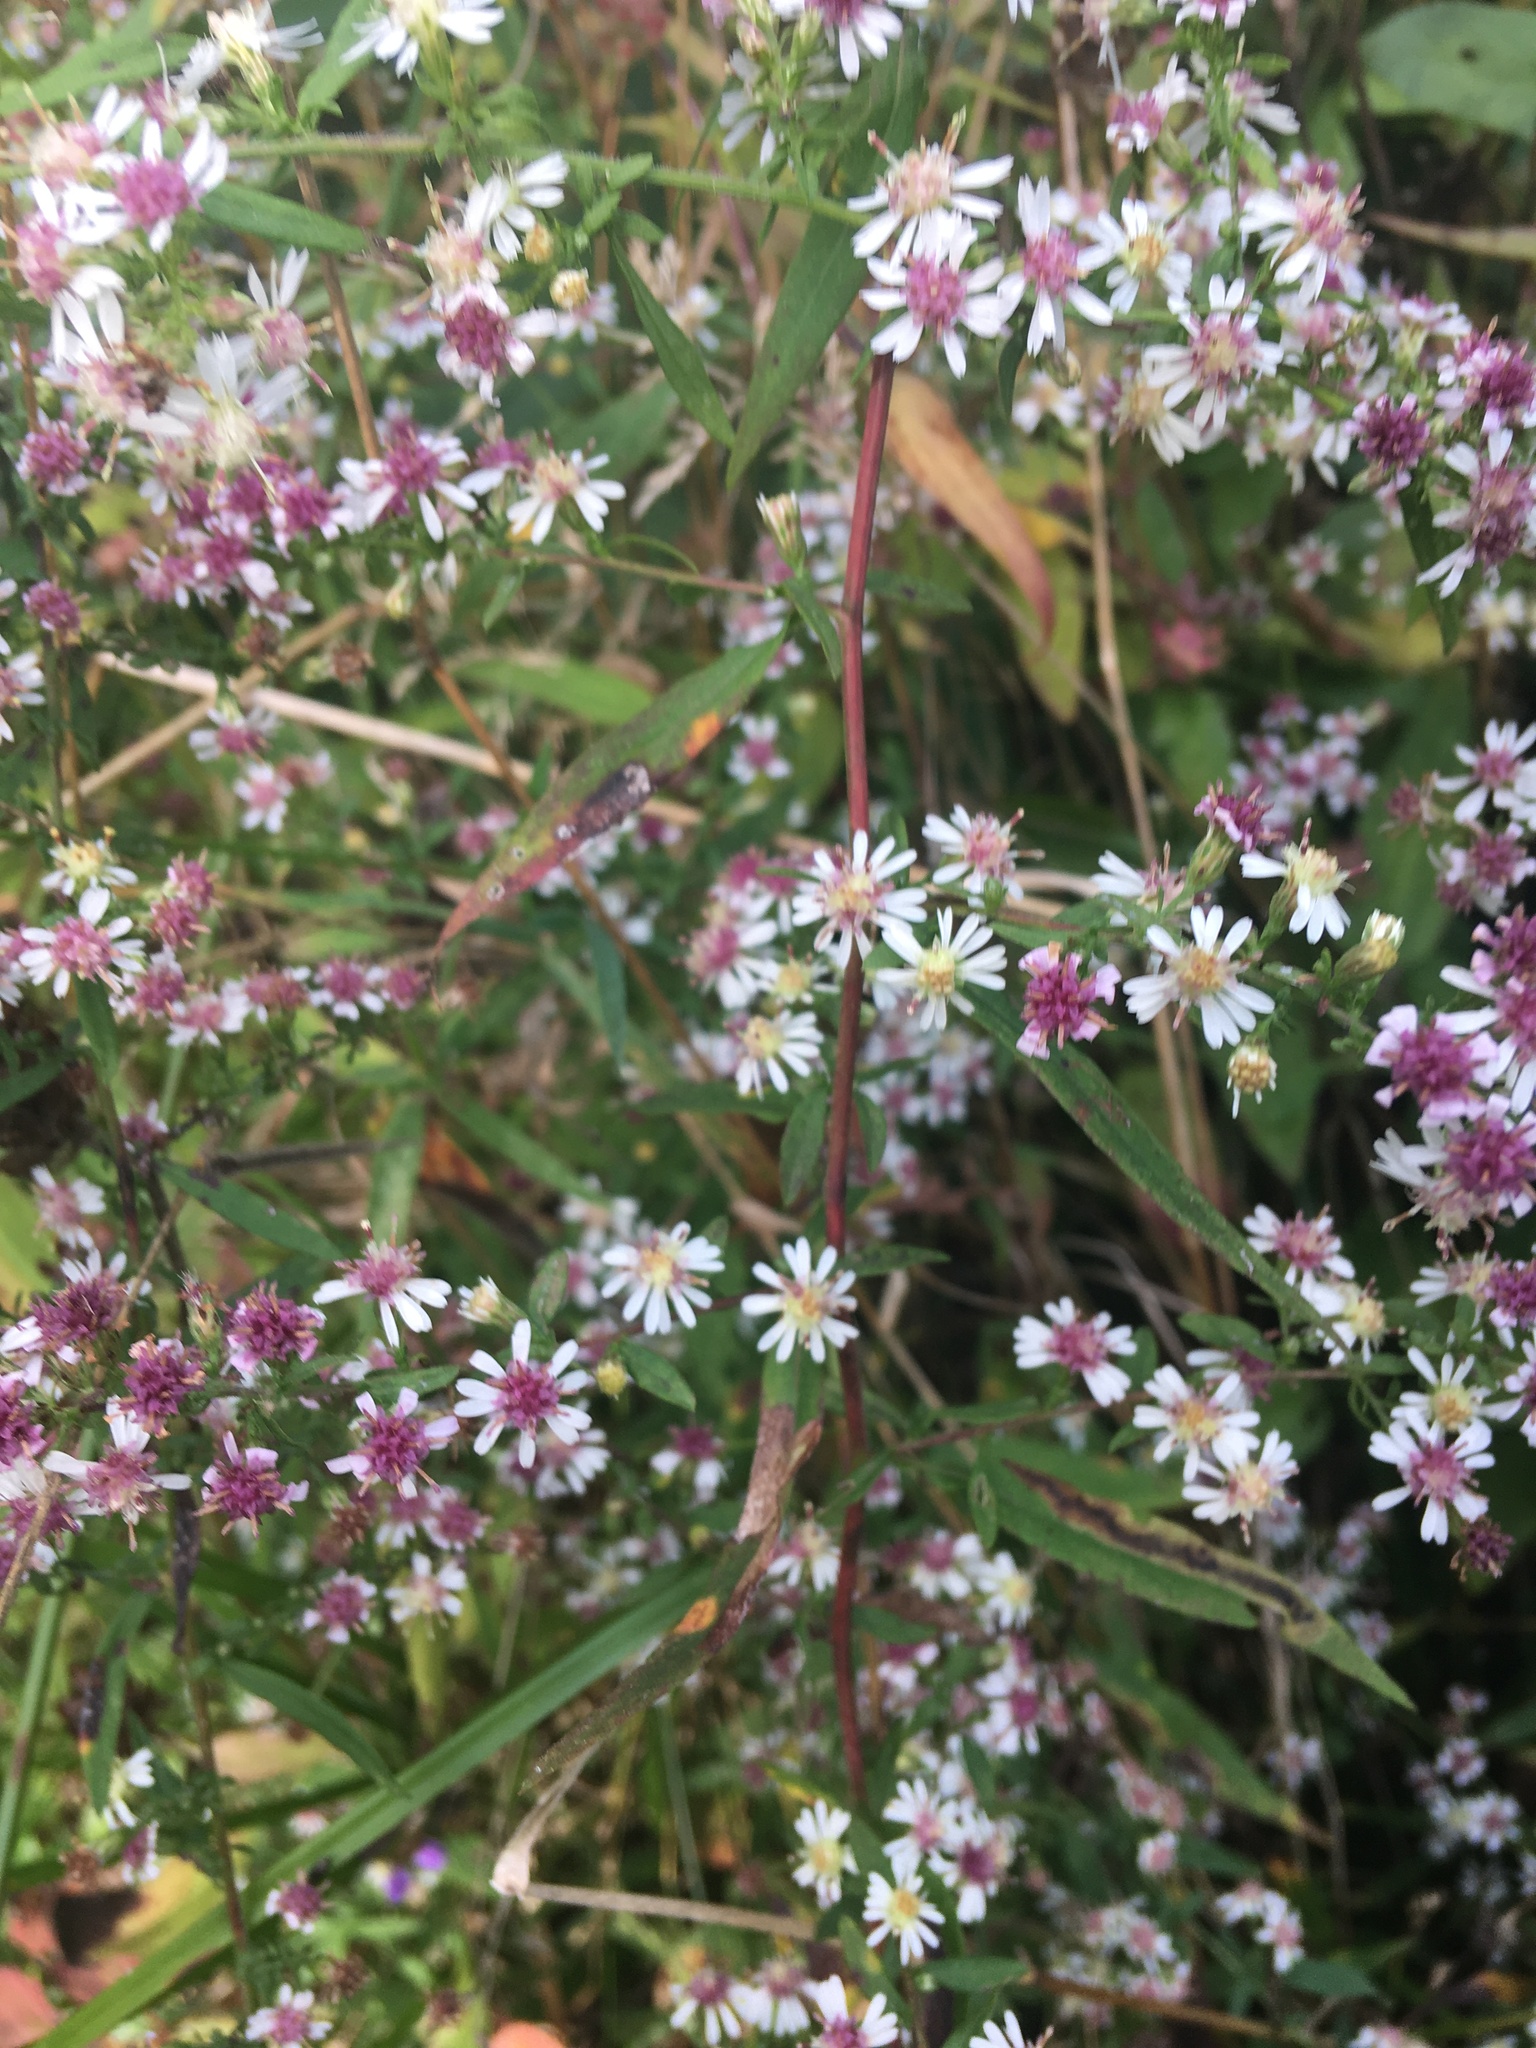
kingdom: Plantae
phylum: Tracheophyta
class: Magnoliopsida
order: Asterales
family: Asteraceae
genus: Symphyotrichum
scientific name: Symphyotrichum lateriflorum
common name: Calico aster
